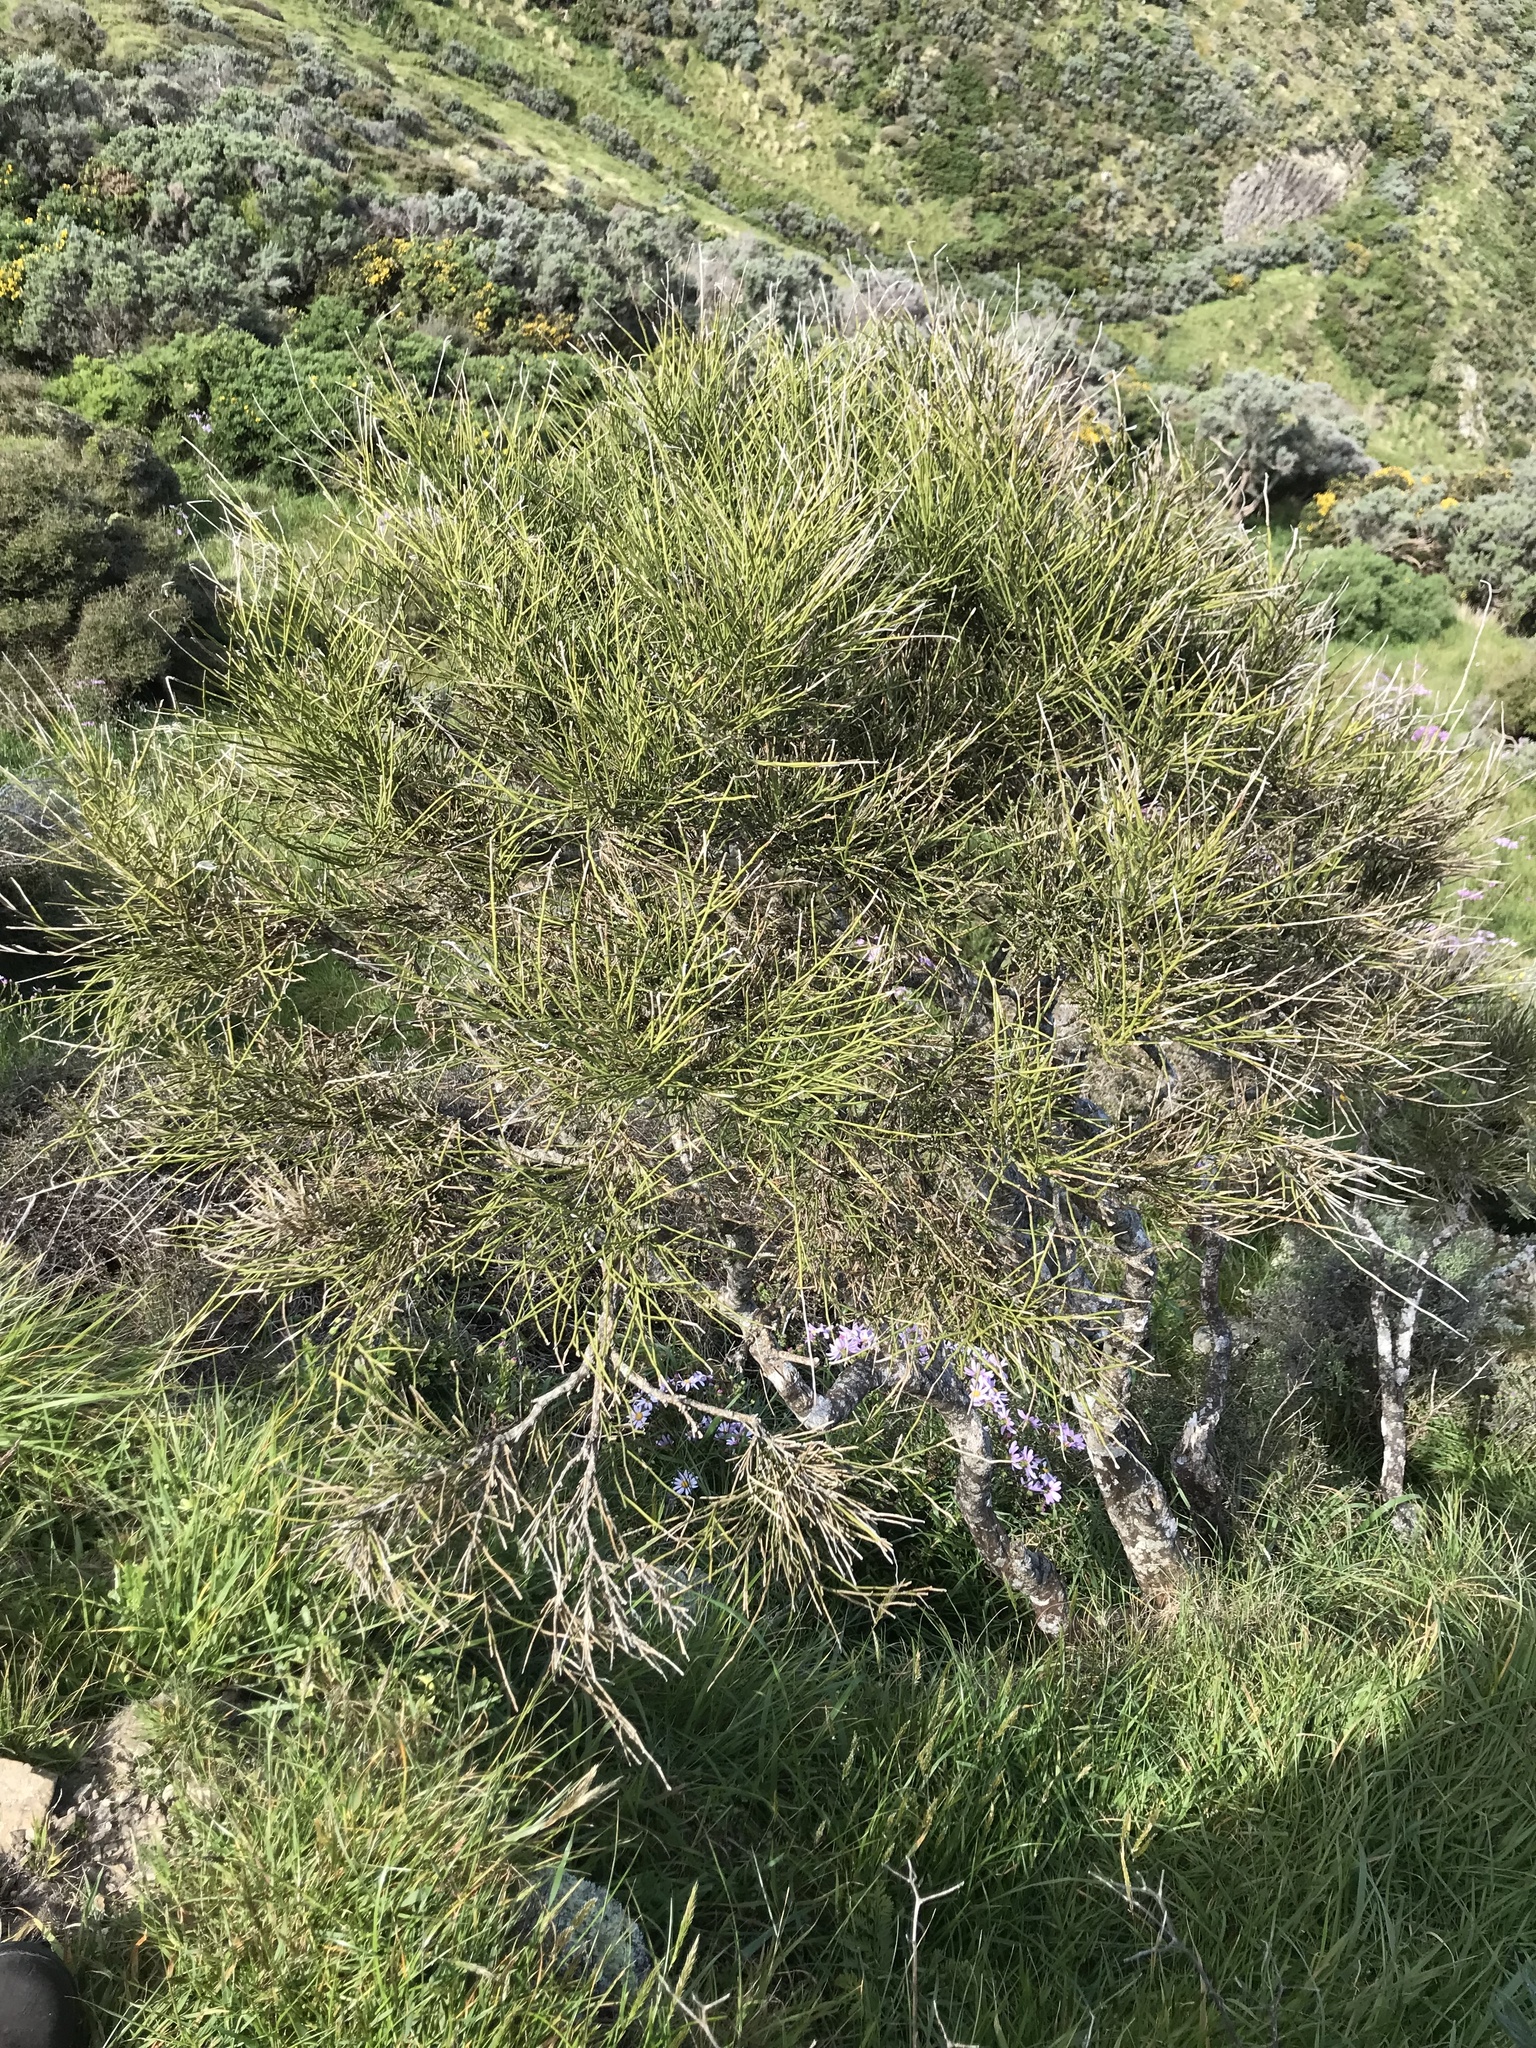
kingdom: Plantae
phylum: Tracheophyta
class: Magnoliopsida
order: Fabales
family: Fabaceae
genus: Carmichaelia
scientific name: Carmichaelia australis
